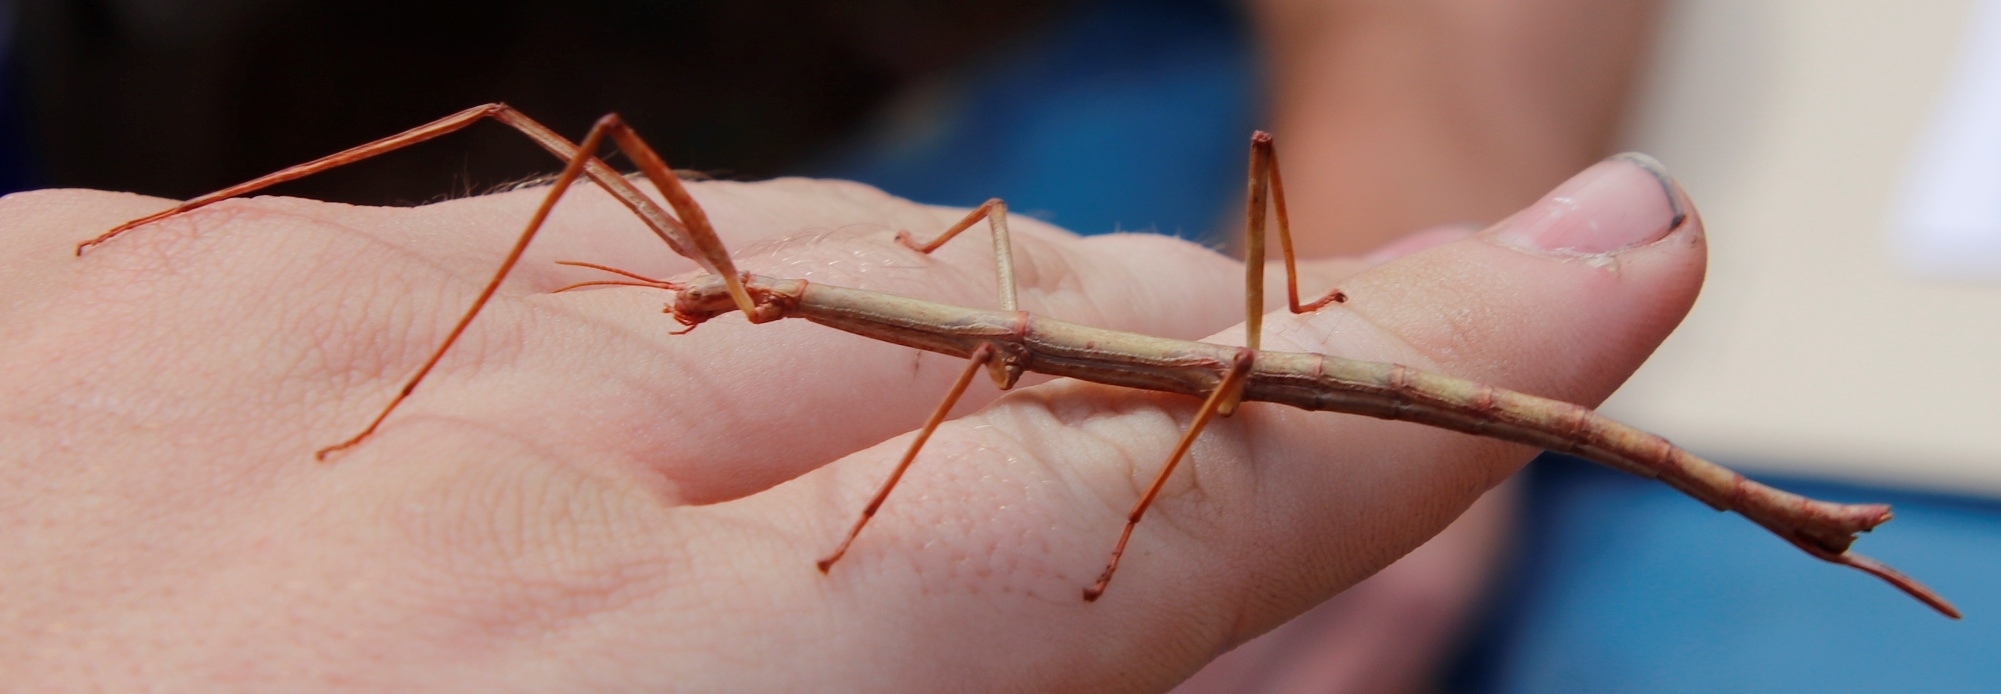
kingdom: Animalia
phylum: Arthropoda
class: Insecta
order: Phasmida
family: Bacillidae
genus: Phalces
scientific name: Phalces brevis
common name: Cape stick insect
